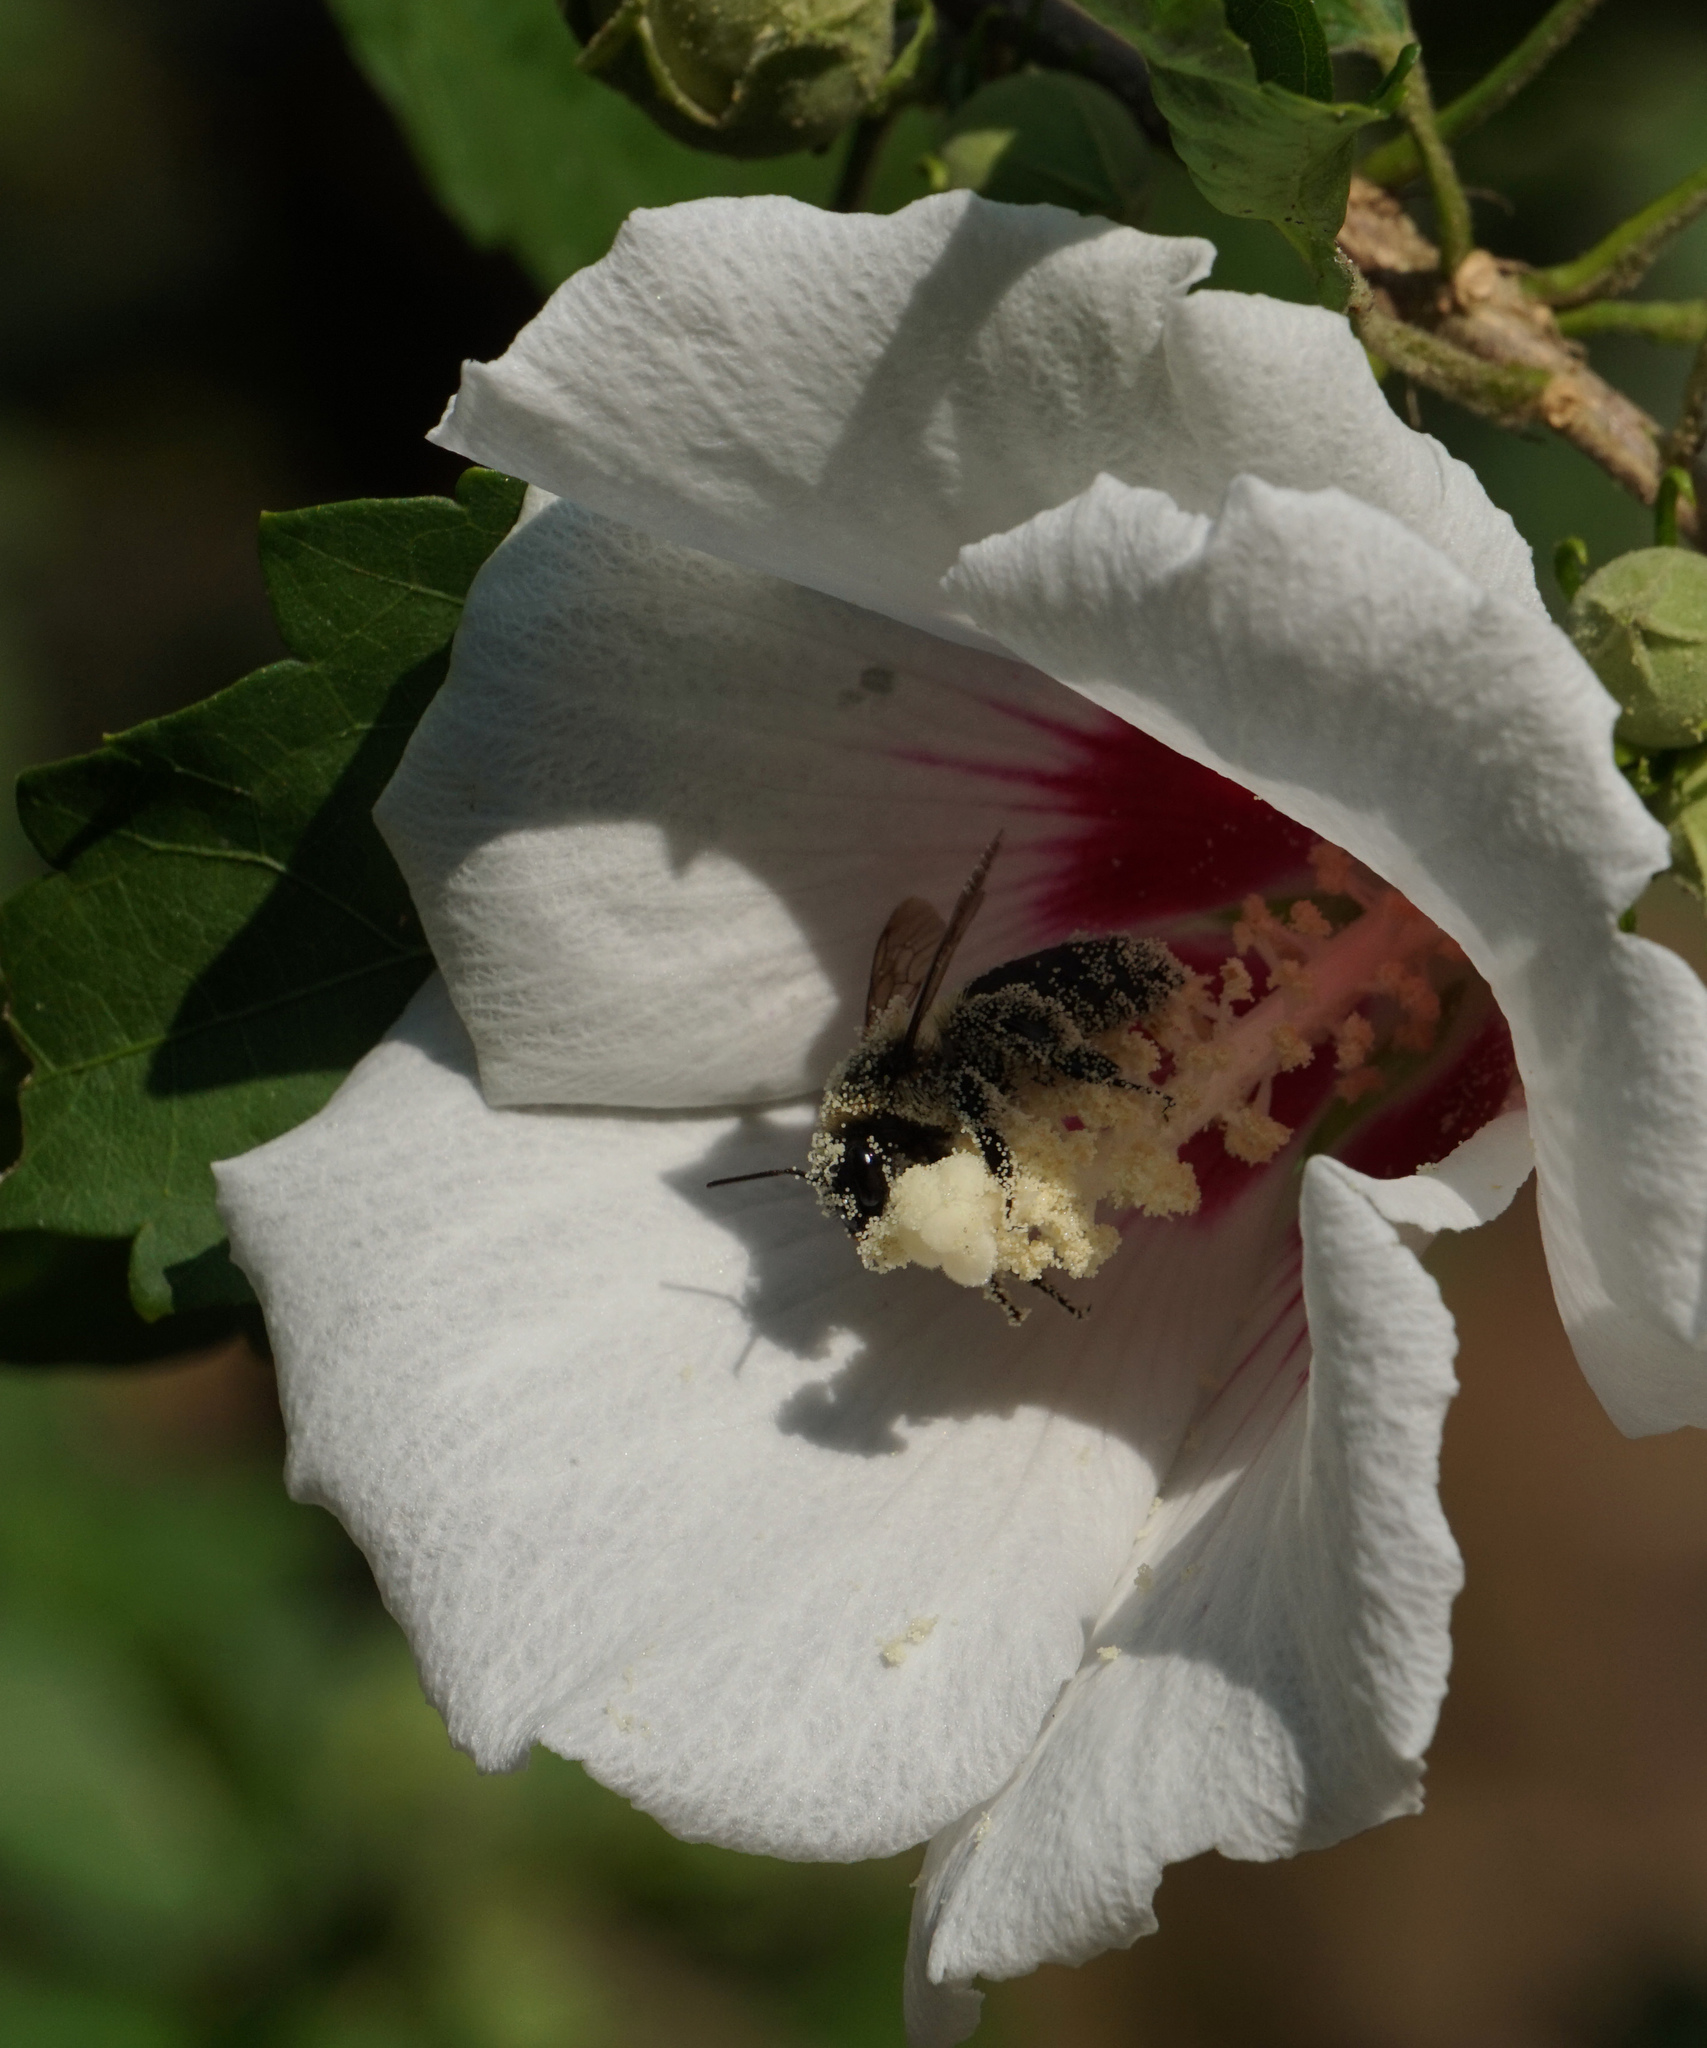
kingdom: Animalia
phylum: Arthropoda
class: Insecta
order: Hymenoptera
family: Apidae
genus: Bombus
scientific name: Bombus pensylvanicus
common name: Bumble bee
